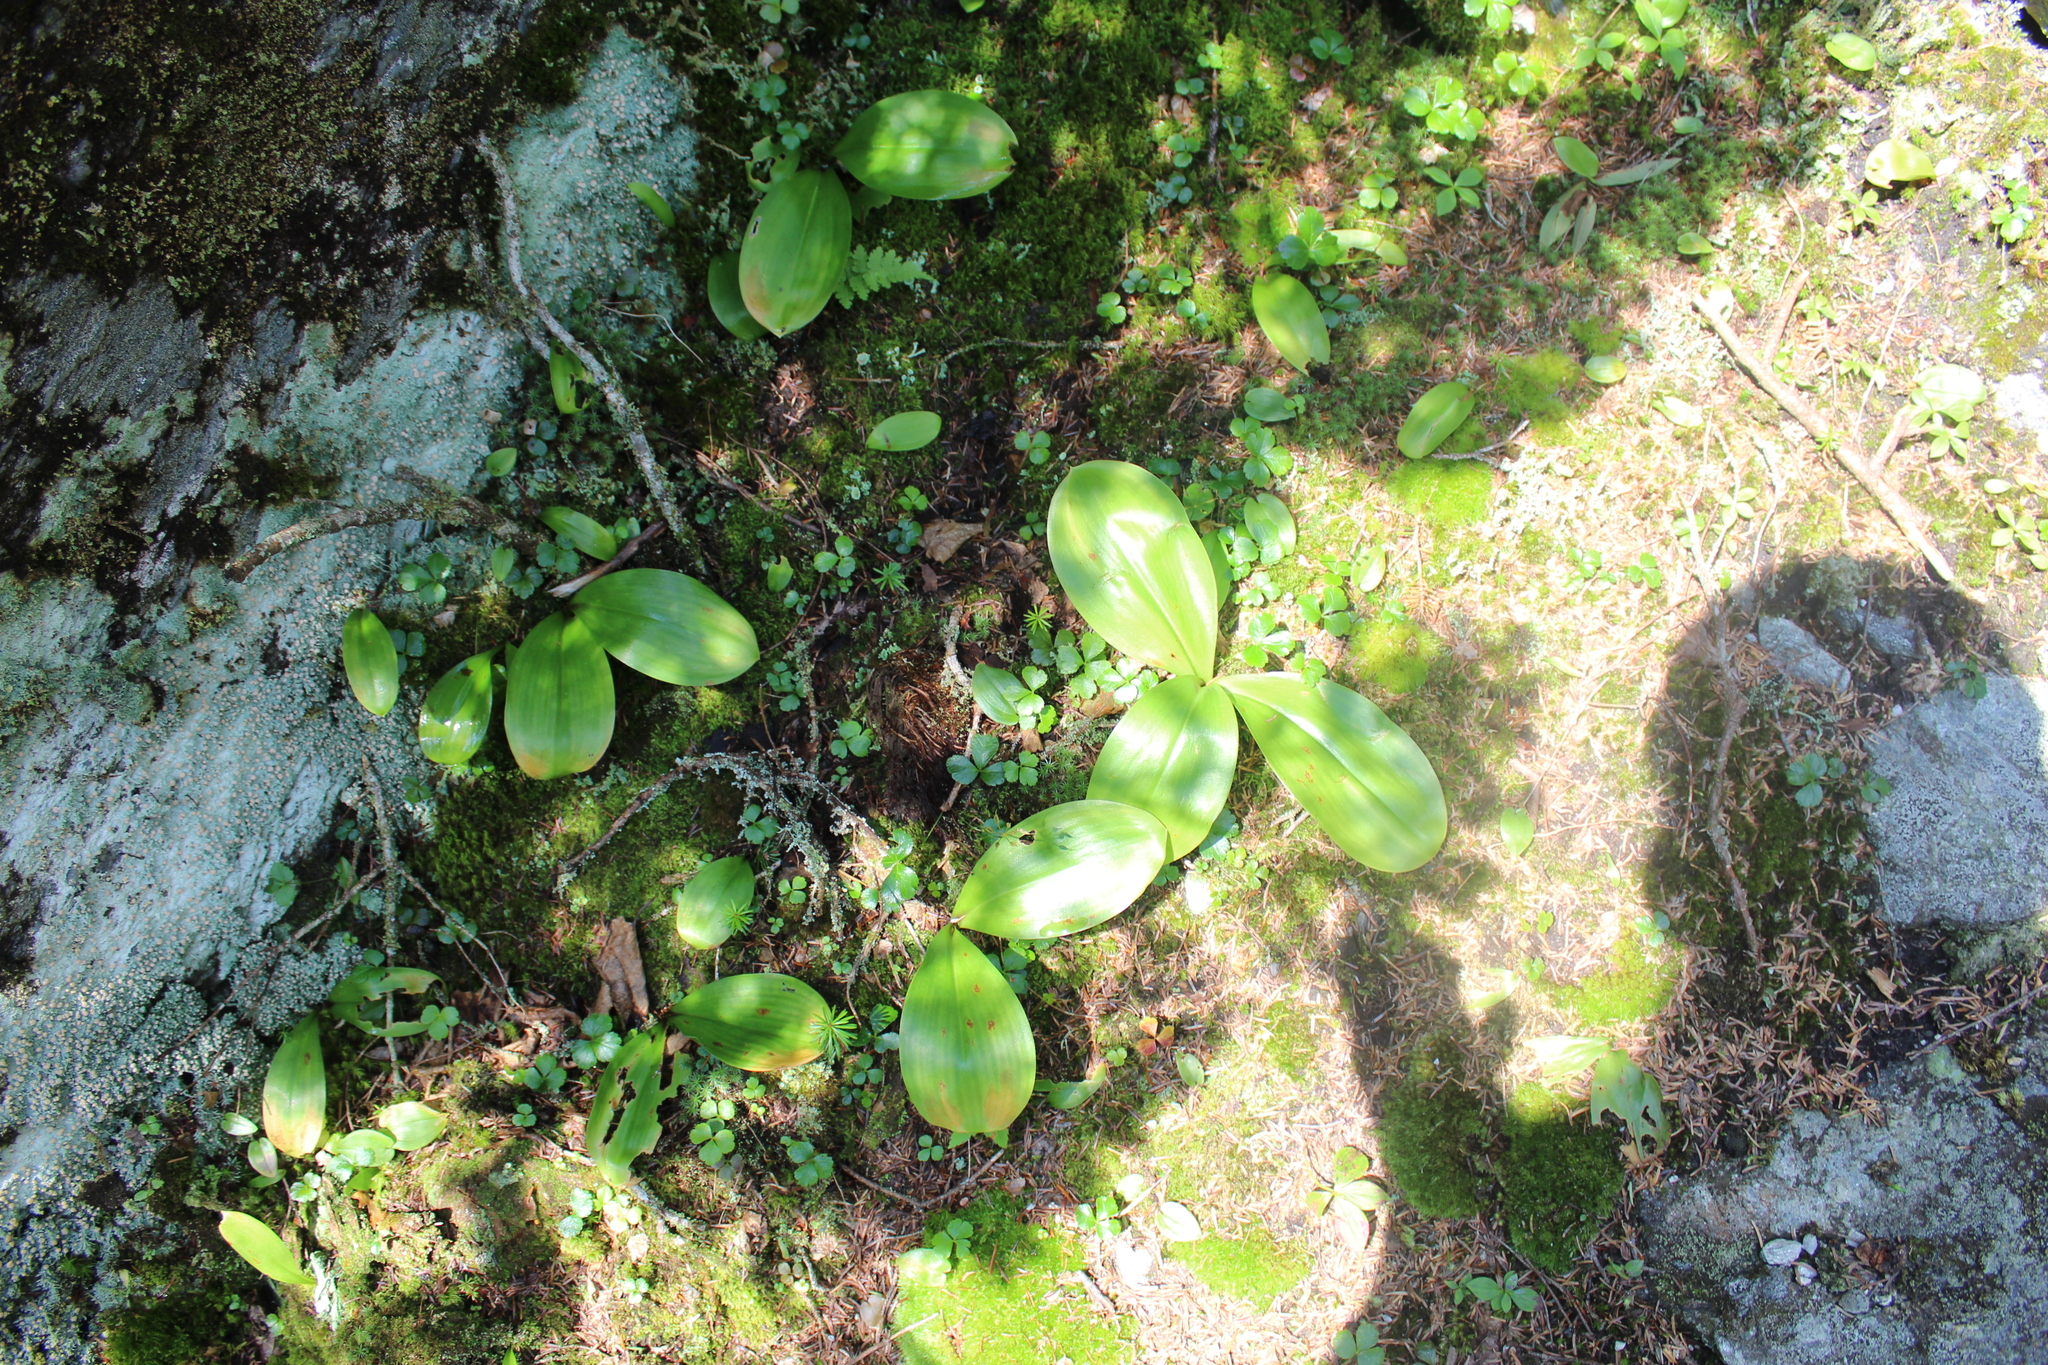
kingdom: Plantae
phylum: Tracheophyta
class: Liliopsida
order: Liliales
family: Liliaceae
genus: Clintonia
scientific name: Clintonia borealis
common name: Yellow clintonia
